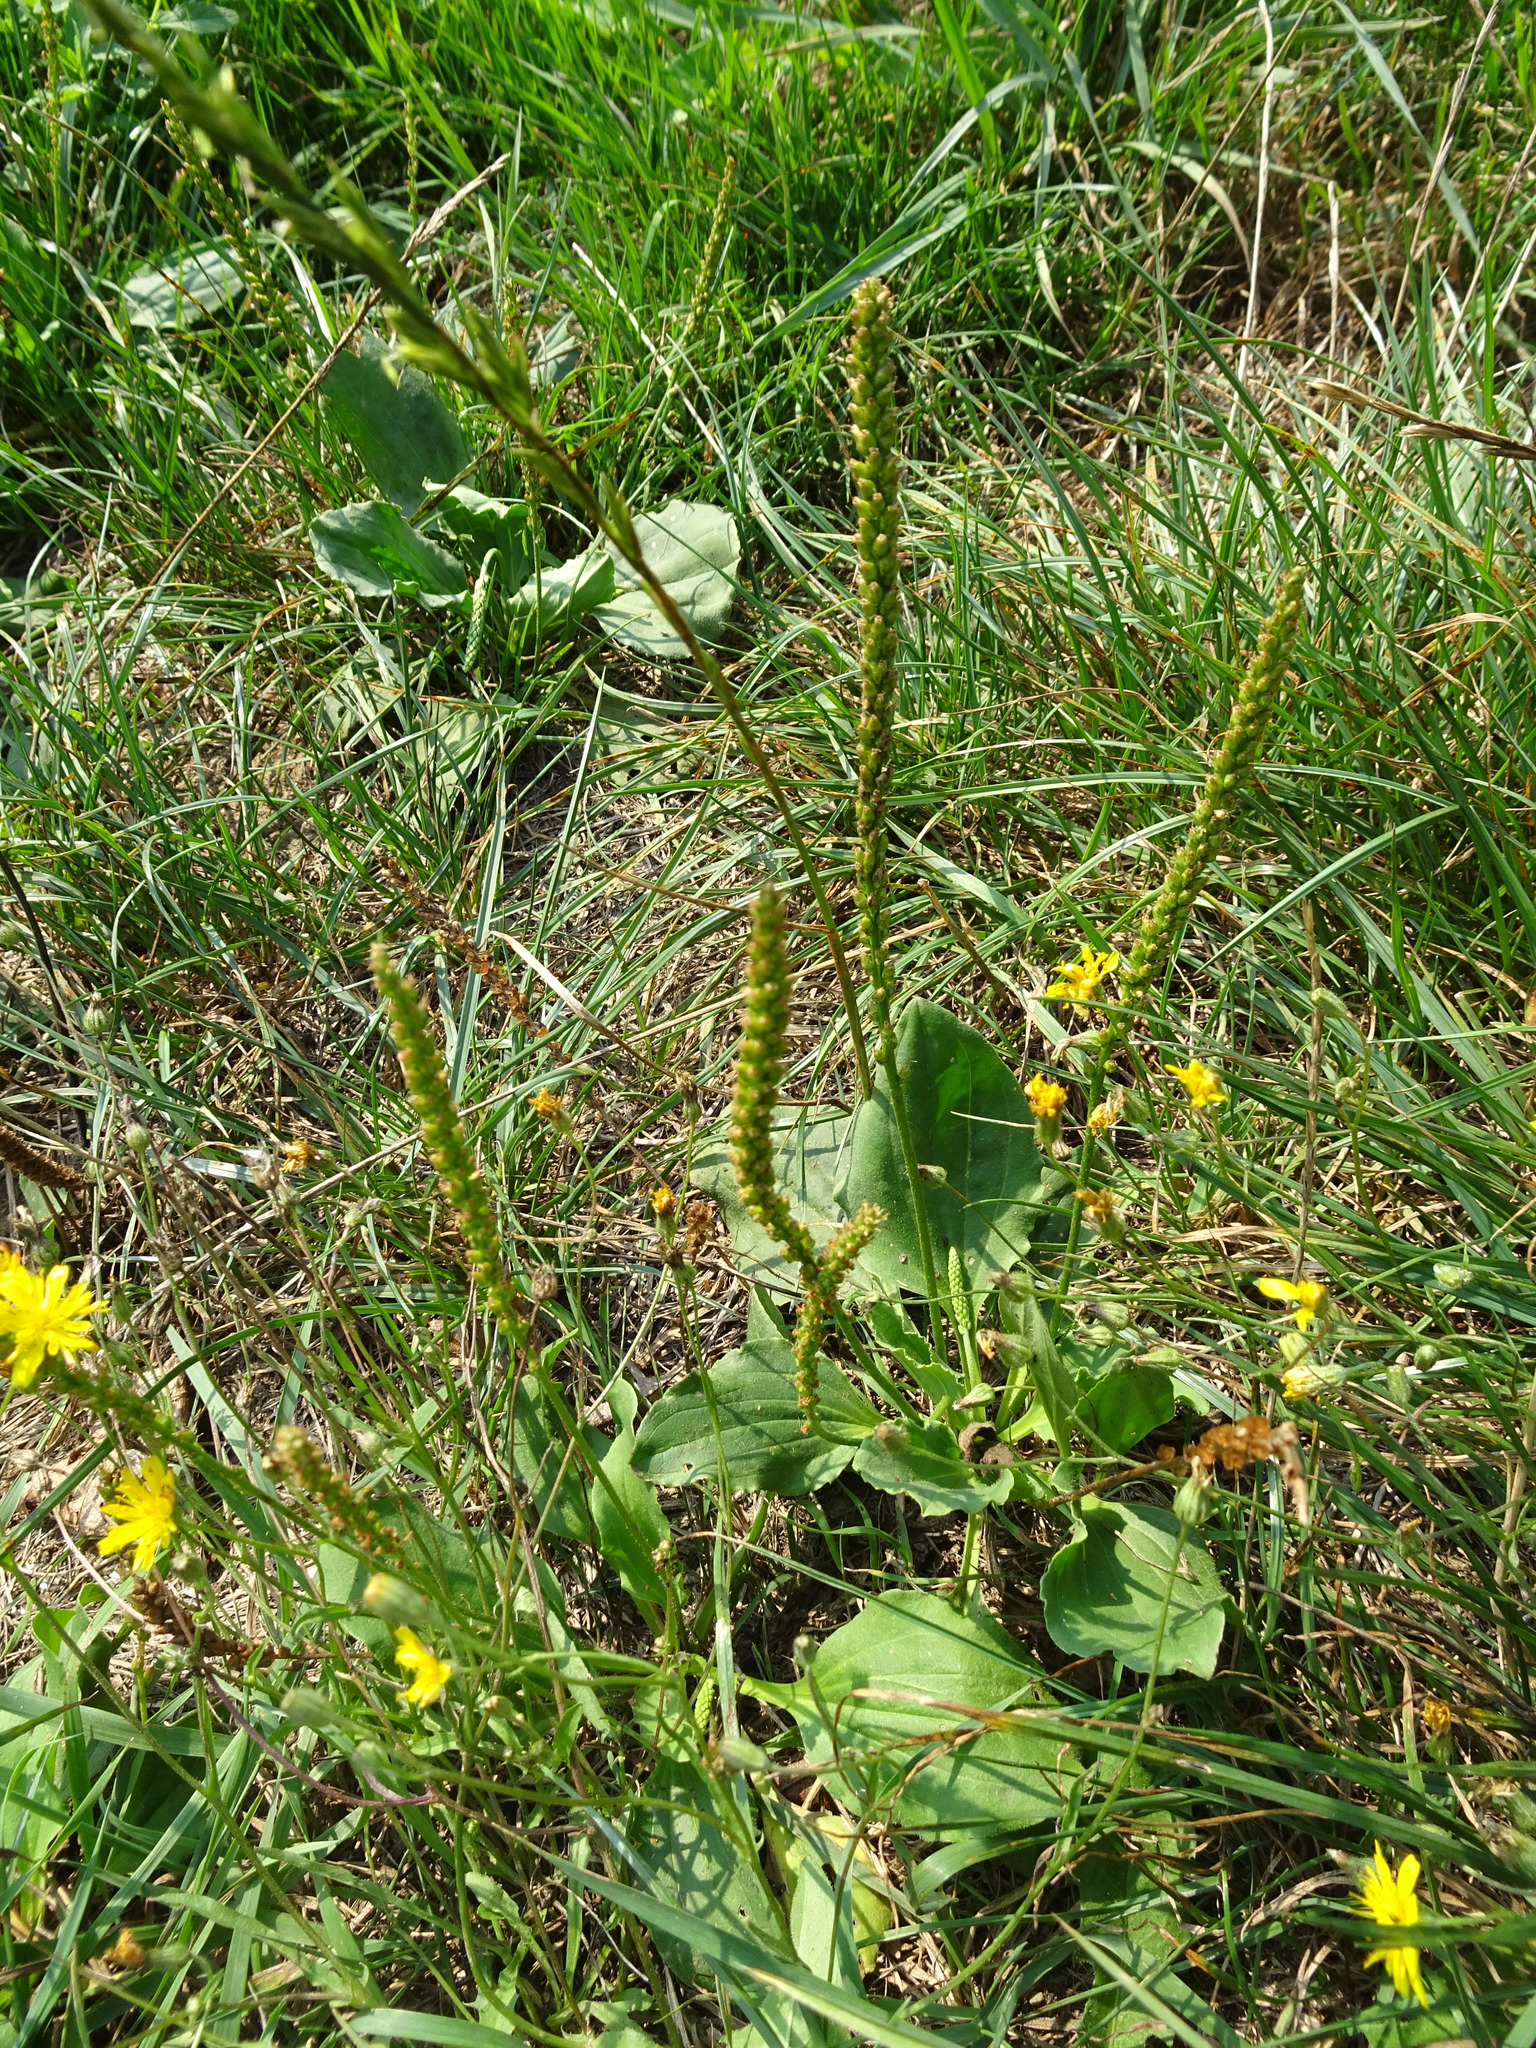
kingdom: Plantae
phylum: Tracheophyta
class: Magnoliopsida
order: Lamiales
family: Plantaginaceae
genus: Plantago
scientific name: Plantago major
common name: Common plantain
